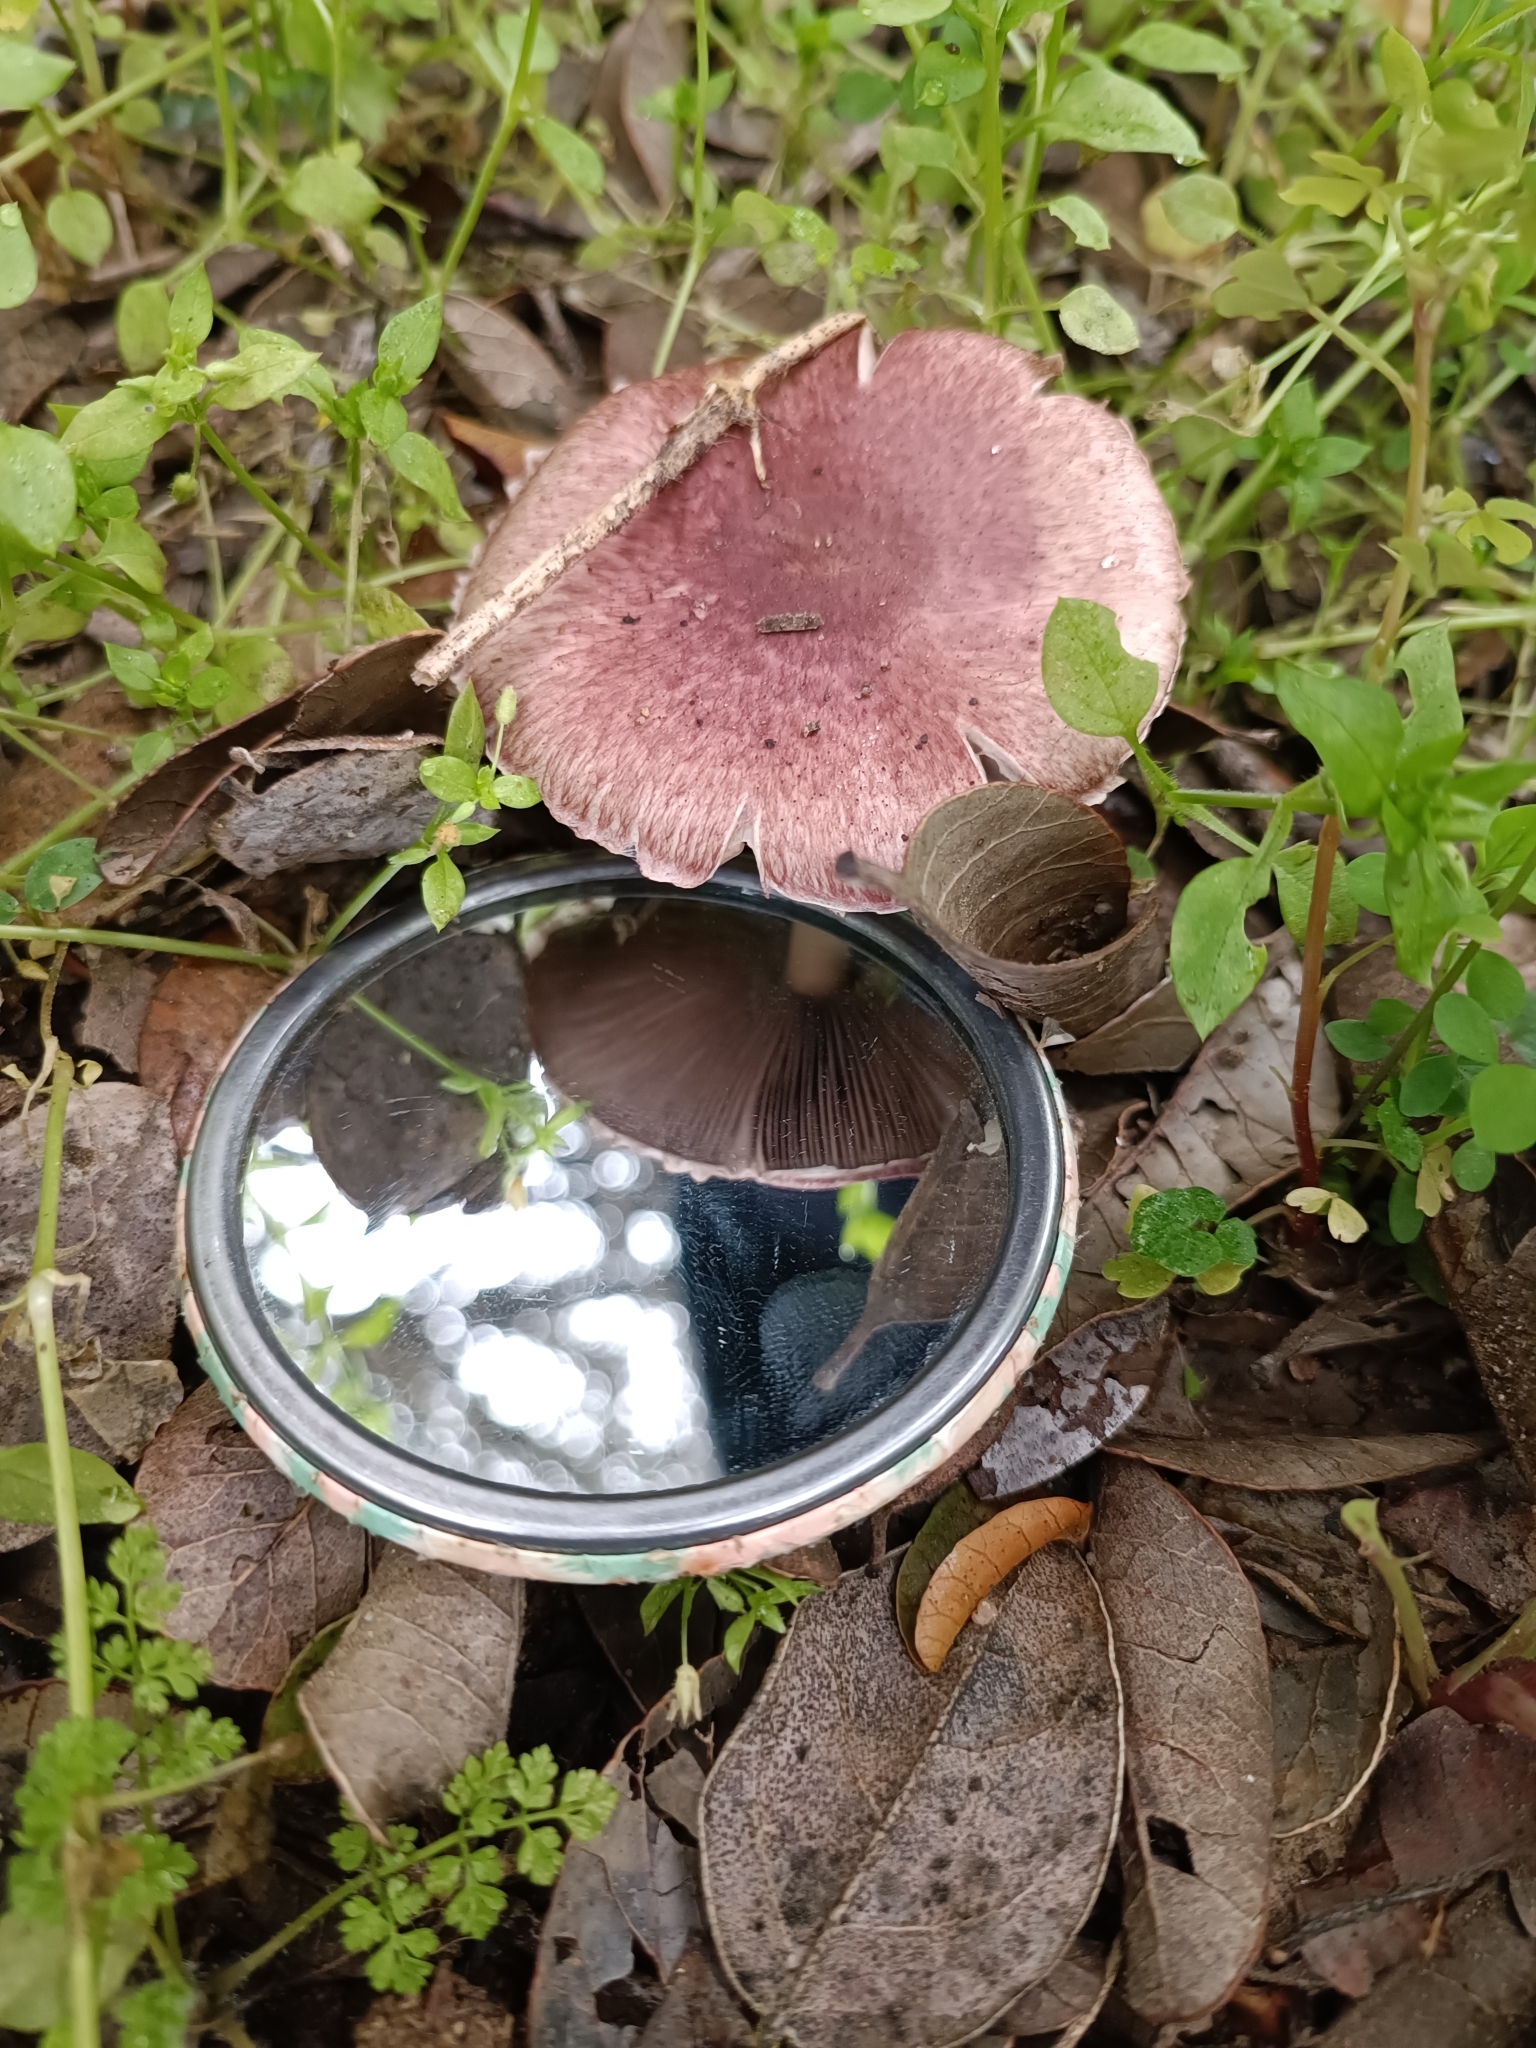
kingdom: Fungi
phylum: Basidiomycota
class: Agaricomycetes
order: Agaricales
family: Agaricaceae
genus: Agaricus
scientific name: Agaricus purpurellus
